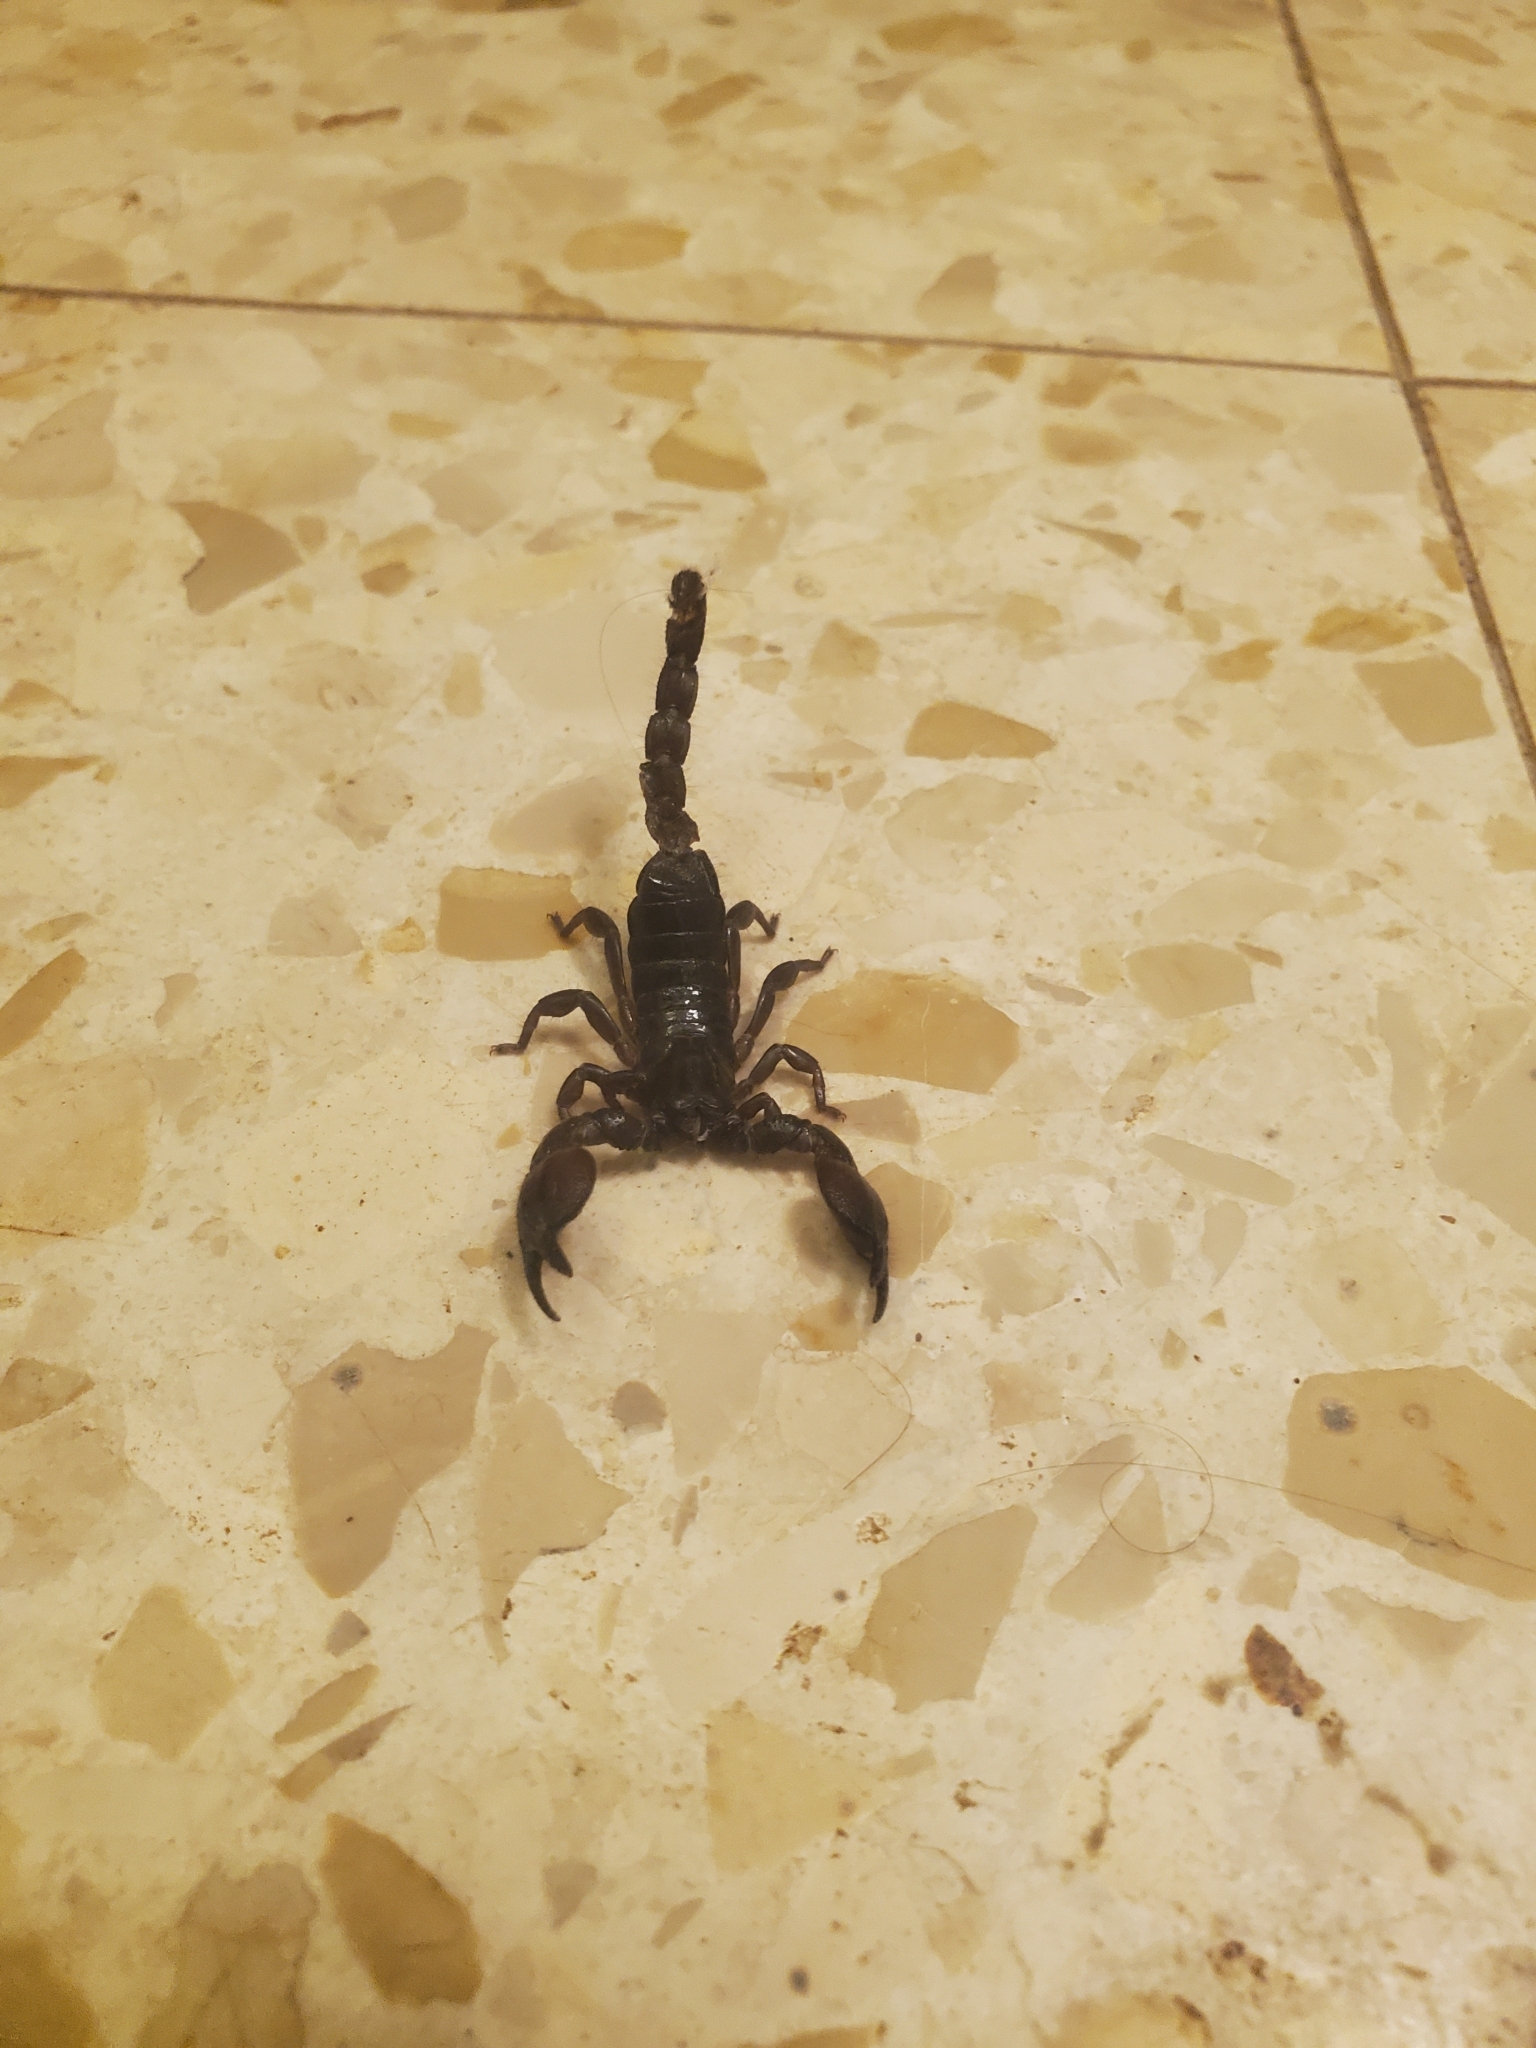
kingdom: Animalia
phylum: Arthropoda
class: Arachnida
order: Scorpiones
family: Scorpionidae
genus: Scorpio
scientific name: Scorpio fuscus
